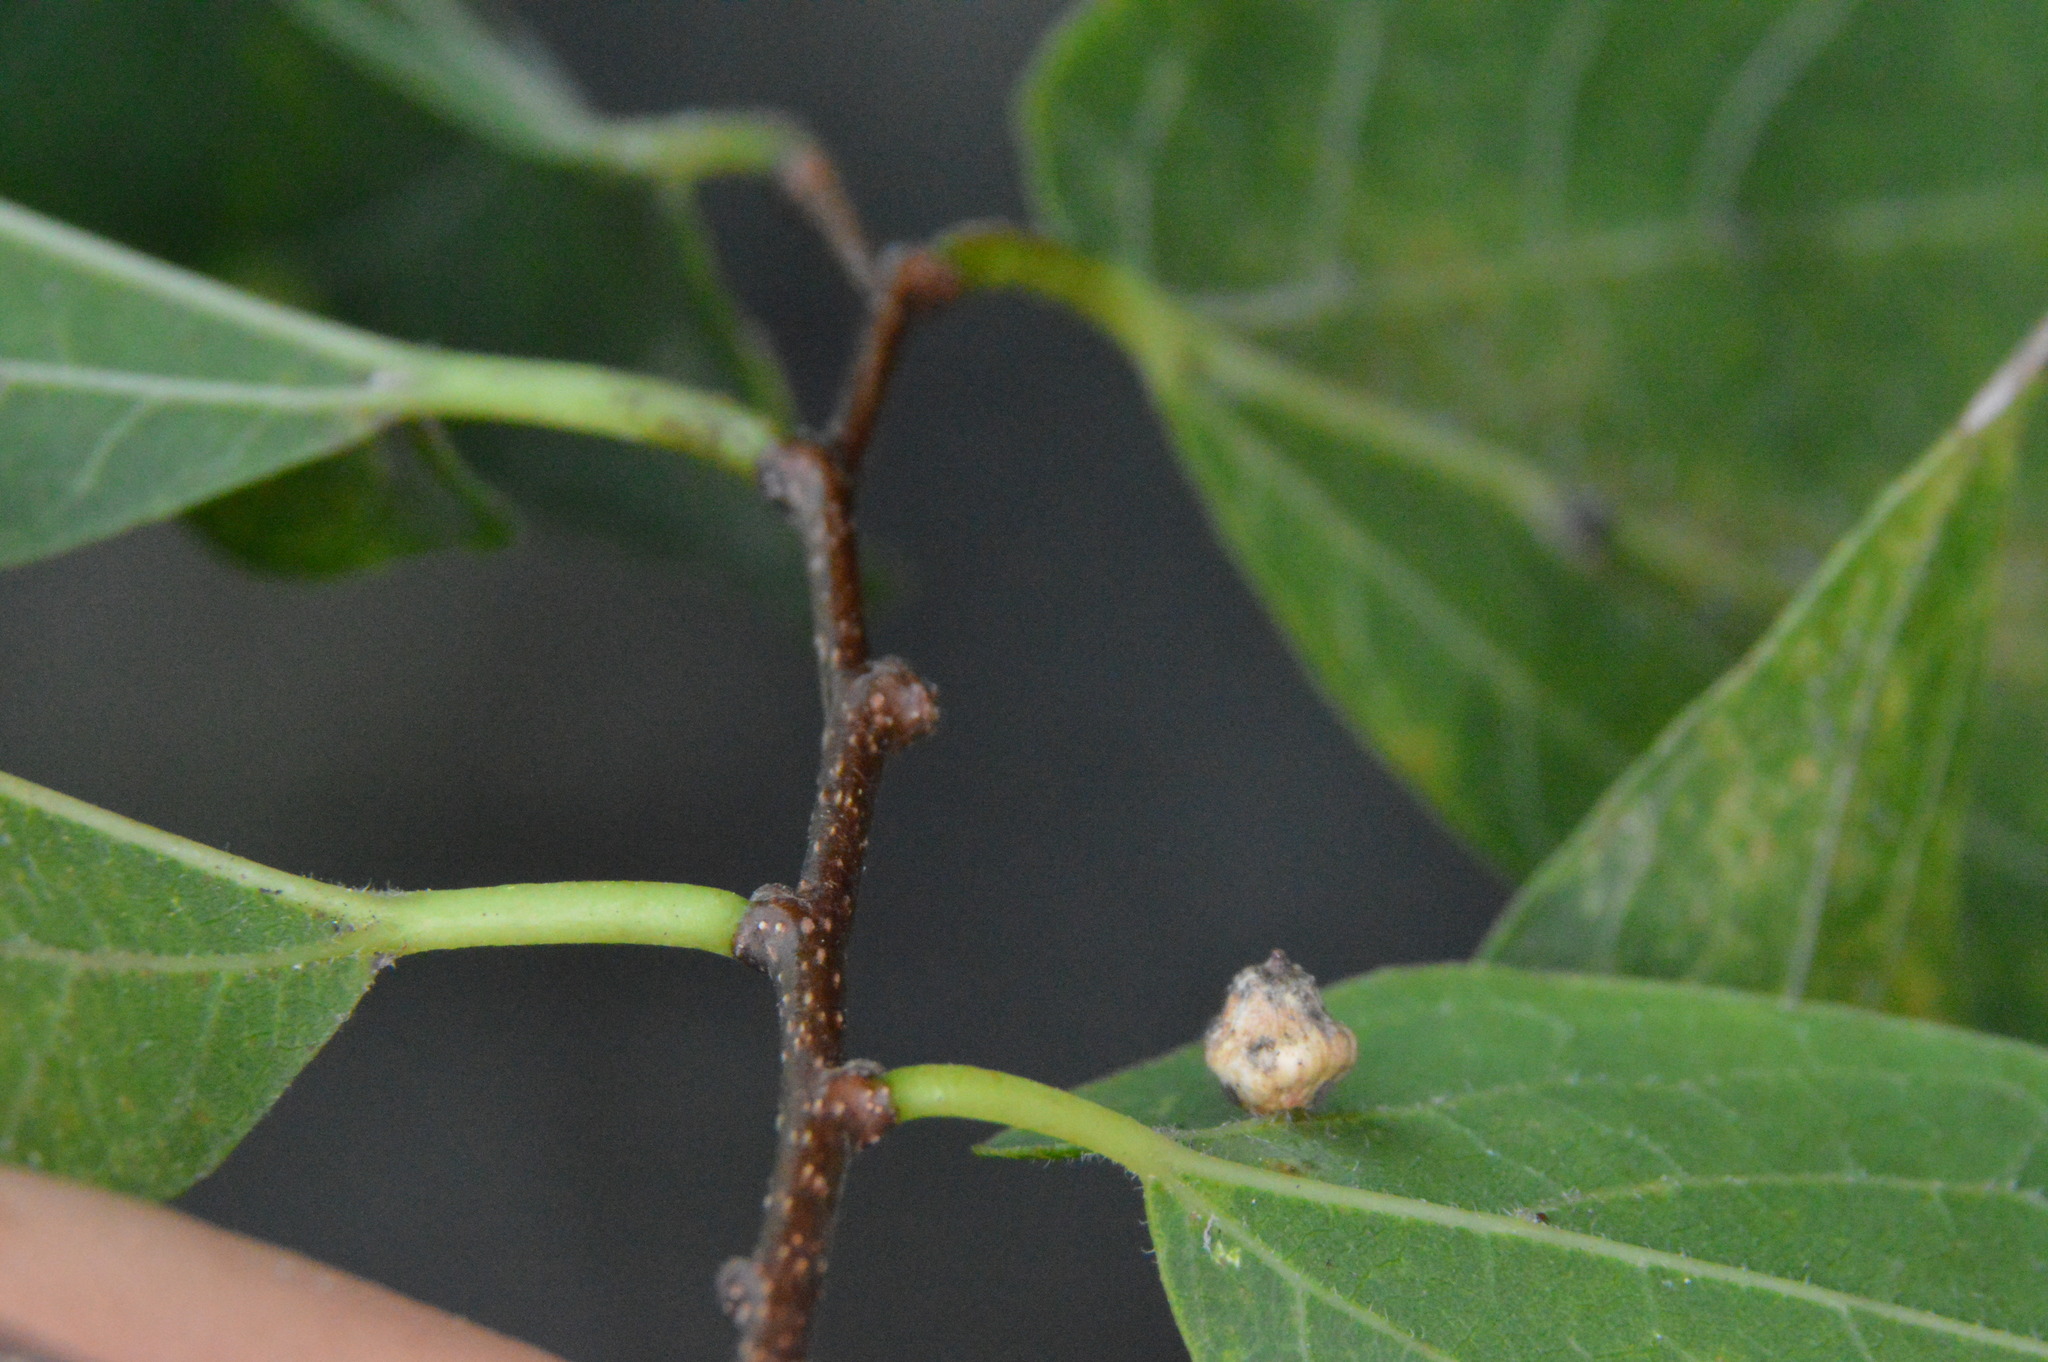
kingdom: Animalia
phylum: Arthropoda
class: Insecta
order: Diptera
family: Cecidomyiidae
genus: Celticecis
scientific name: Celticecis globosa
